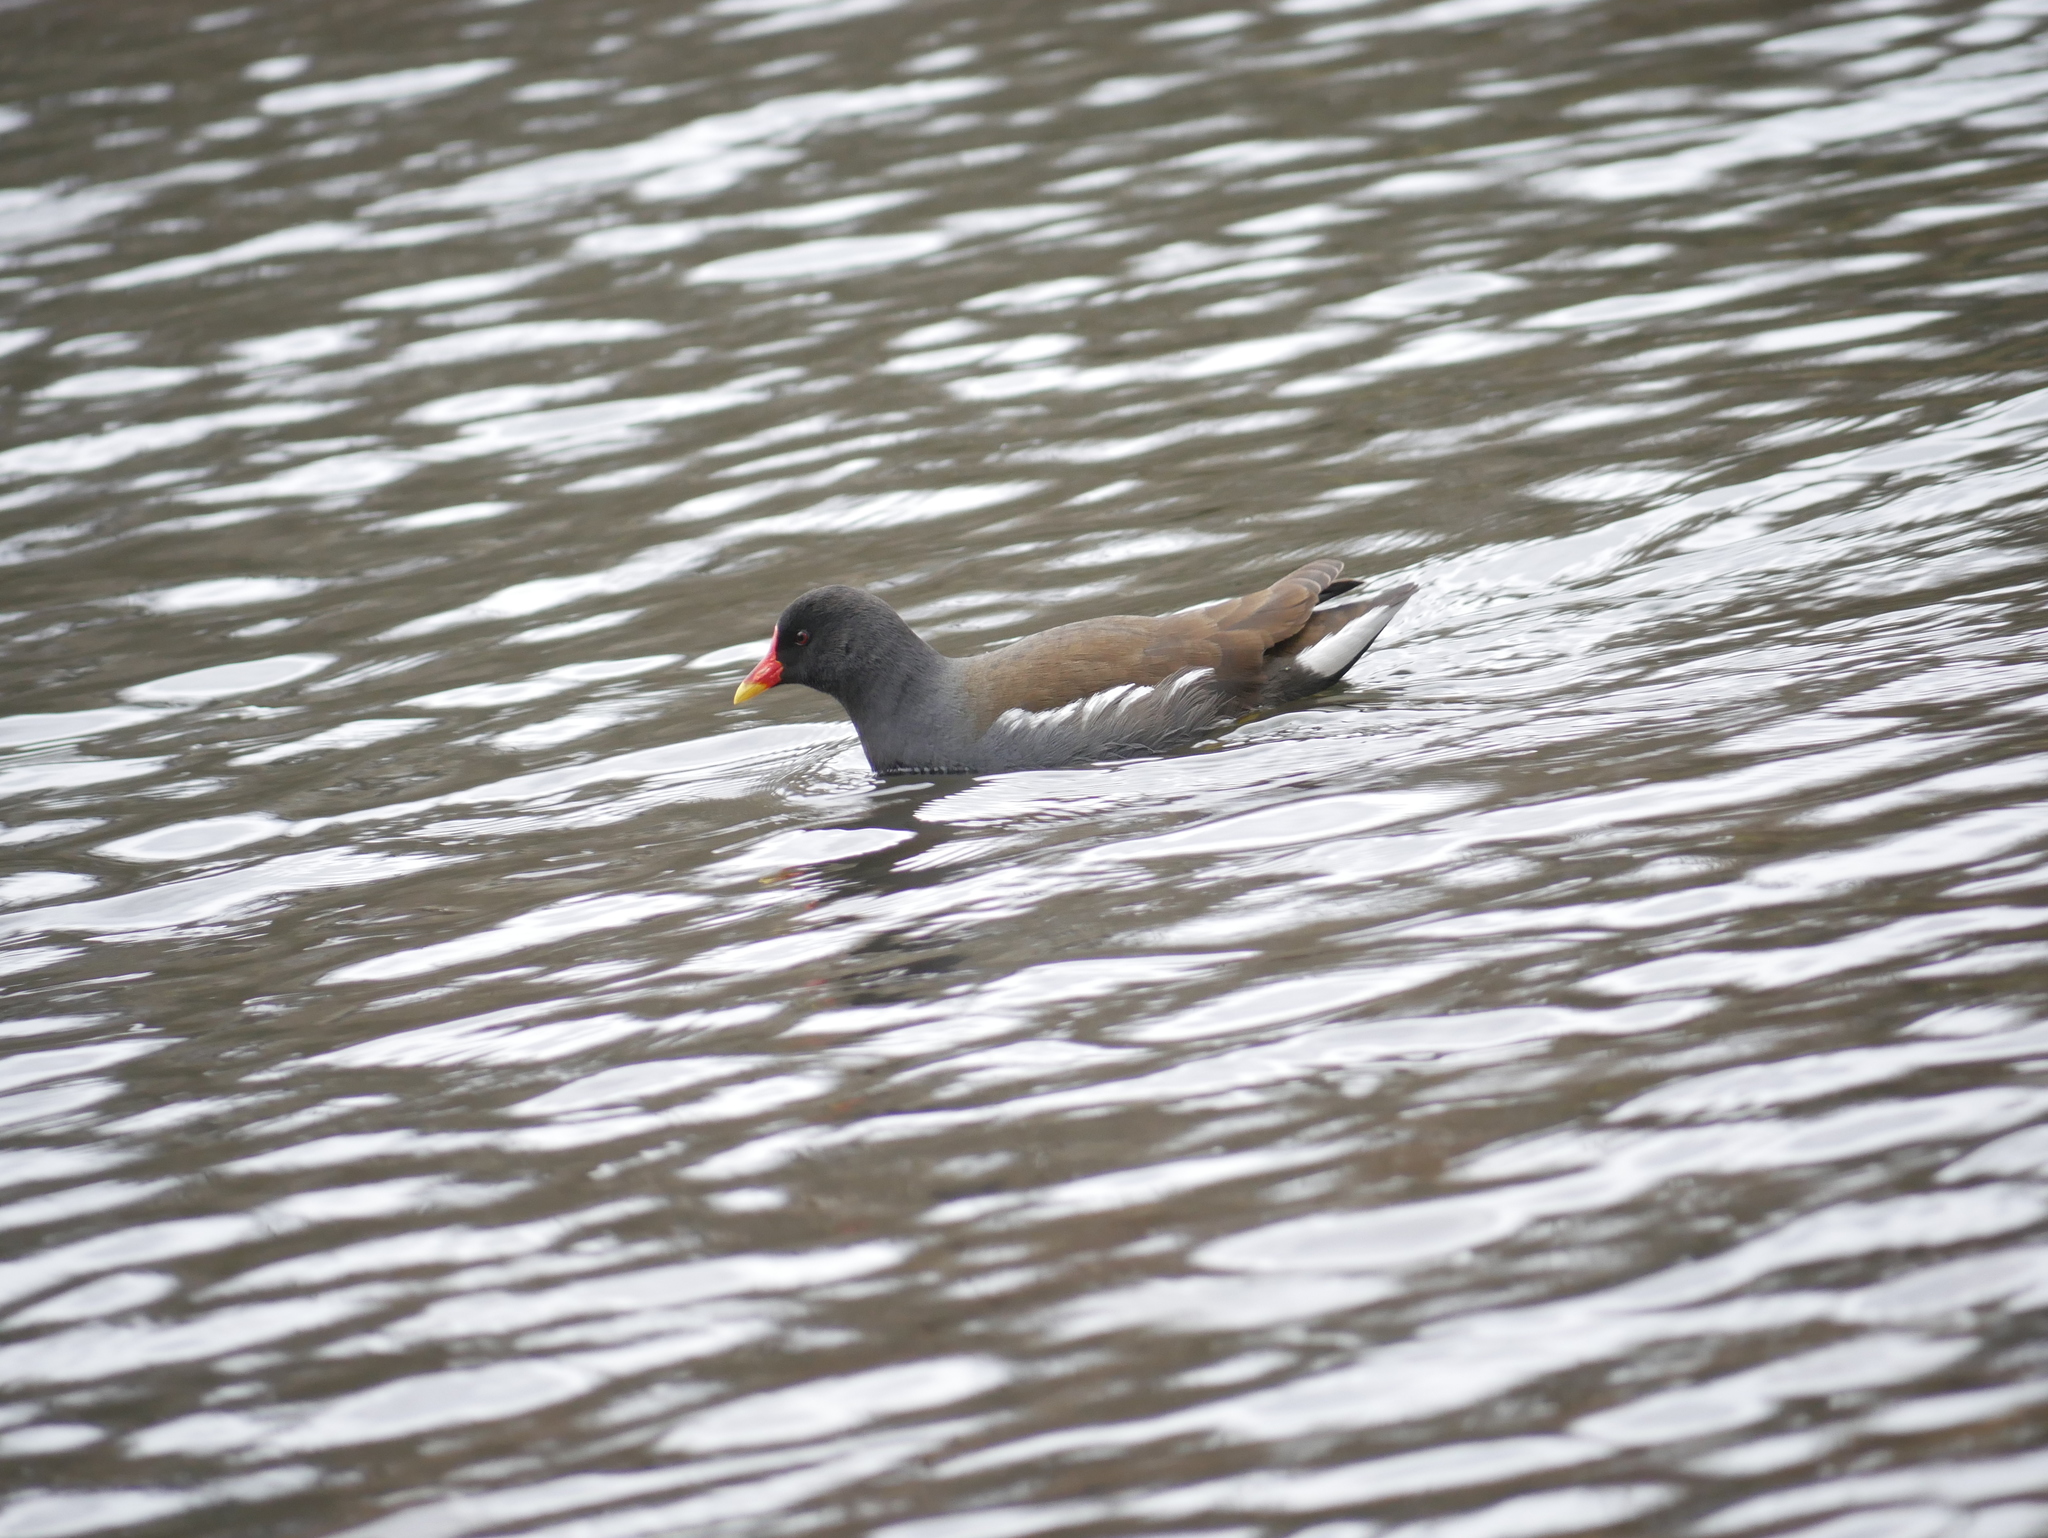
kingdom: Animalia
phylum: Chordata
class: Aves
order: Gruiformes
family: Rallidae
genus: Gallinula
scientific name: Gallinula chloropus
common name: Common moorhen
